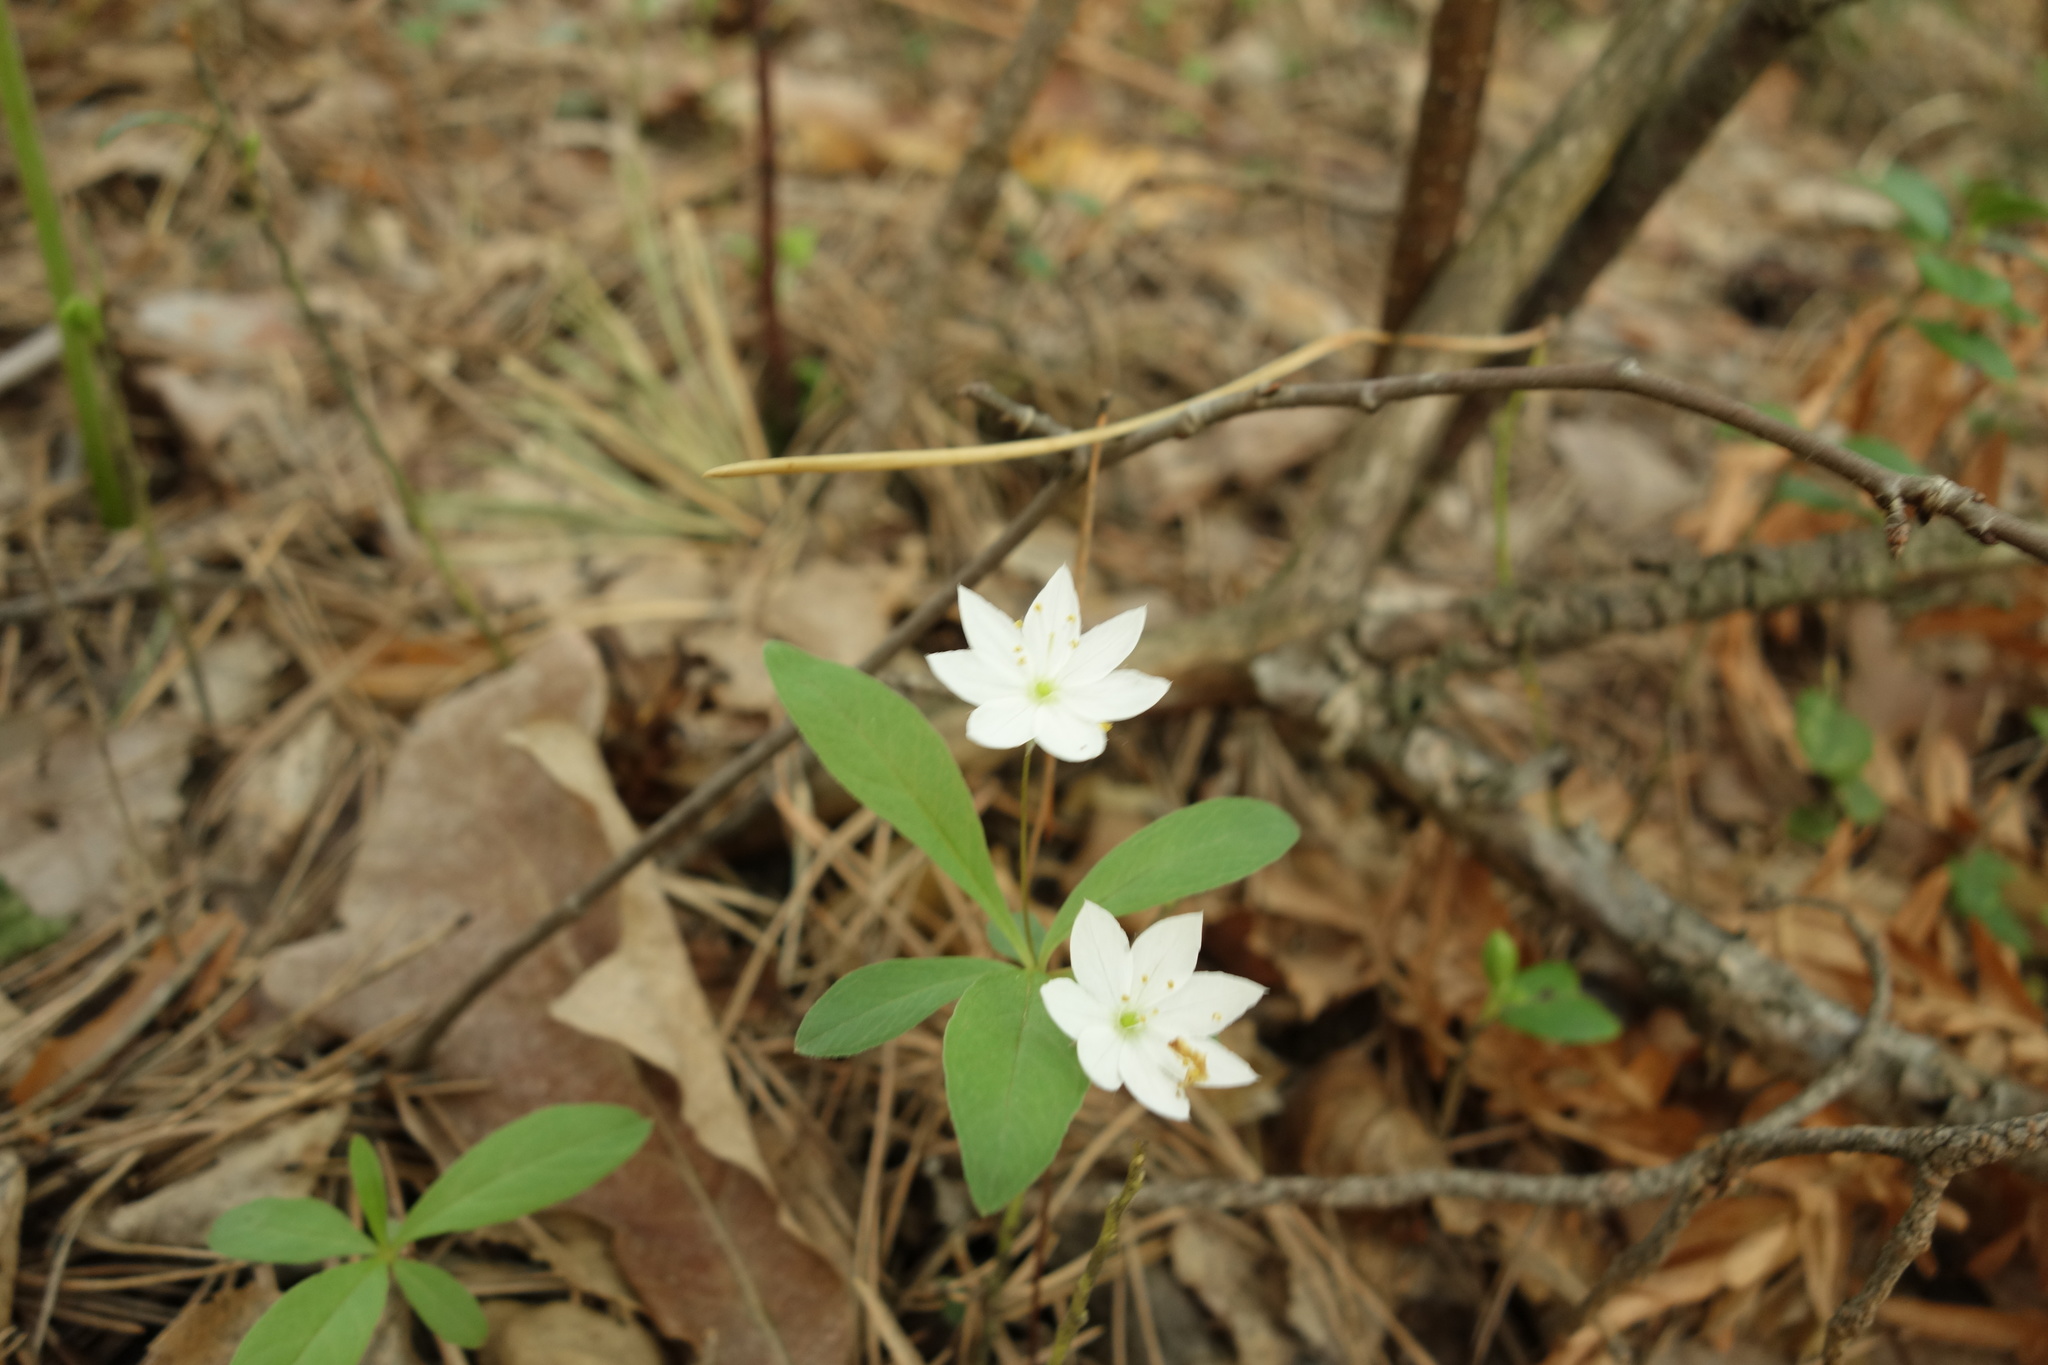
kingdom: Plantae
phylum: Tracheophyta
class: Magnoliopsida
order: Ericales
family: Primulaceae
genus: Lysimachia
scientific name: Lysimachia europaea
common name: Arctic starflower
